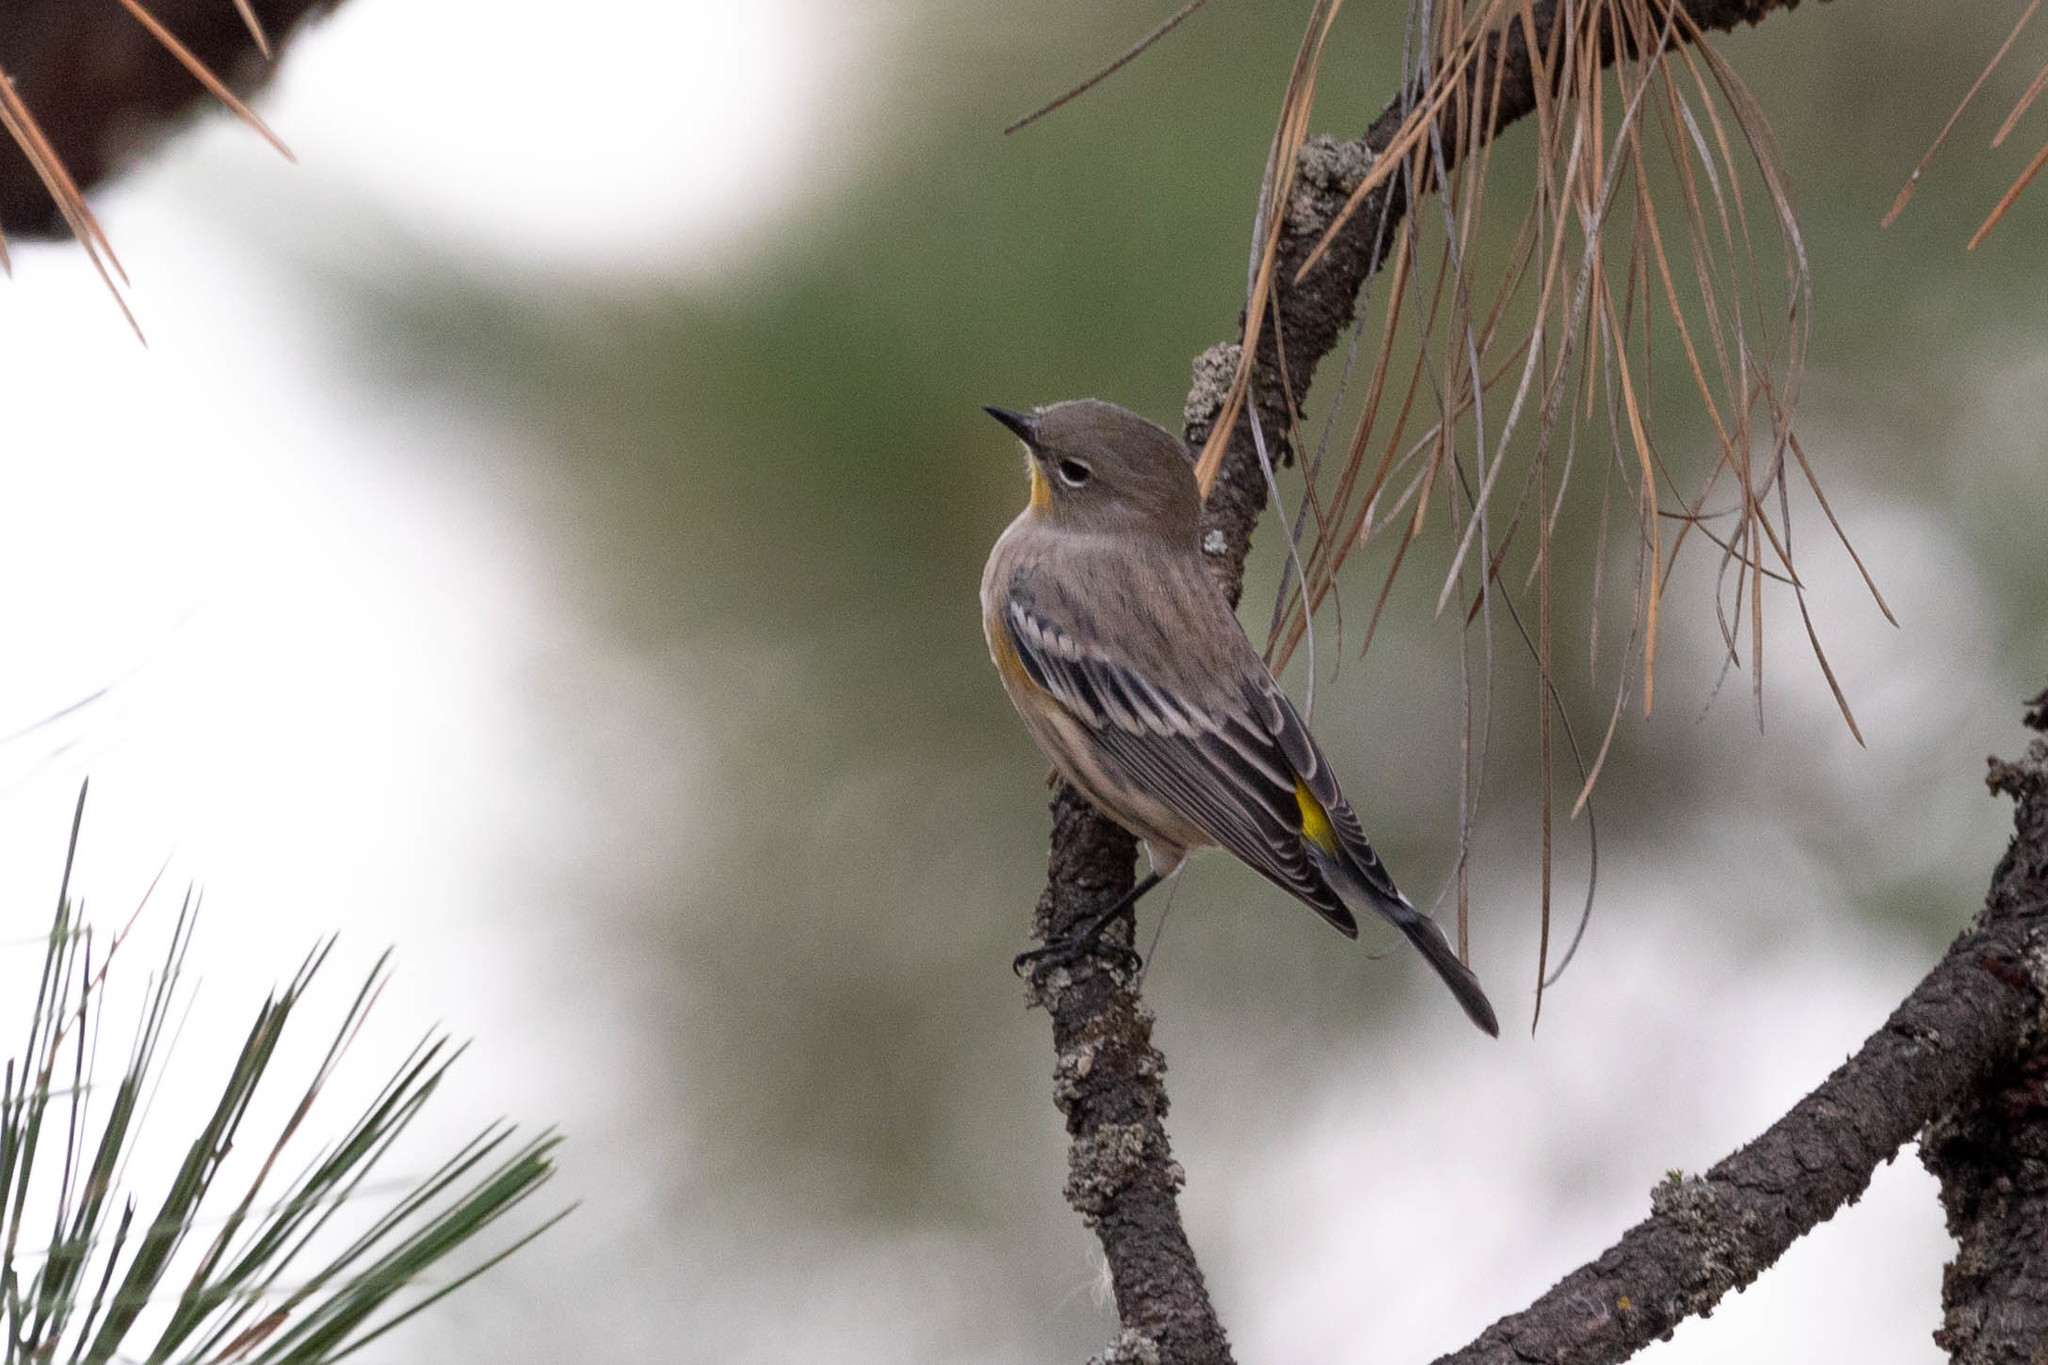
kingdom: Animalia
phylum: Chordata
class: Aves
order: Passeriformes
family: Parulidae
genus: Setophaga
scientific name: Setophaga auduboni
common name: Audubon's warbler
